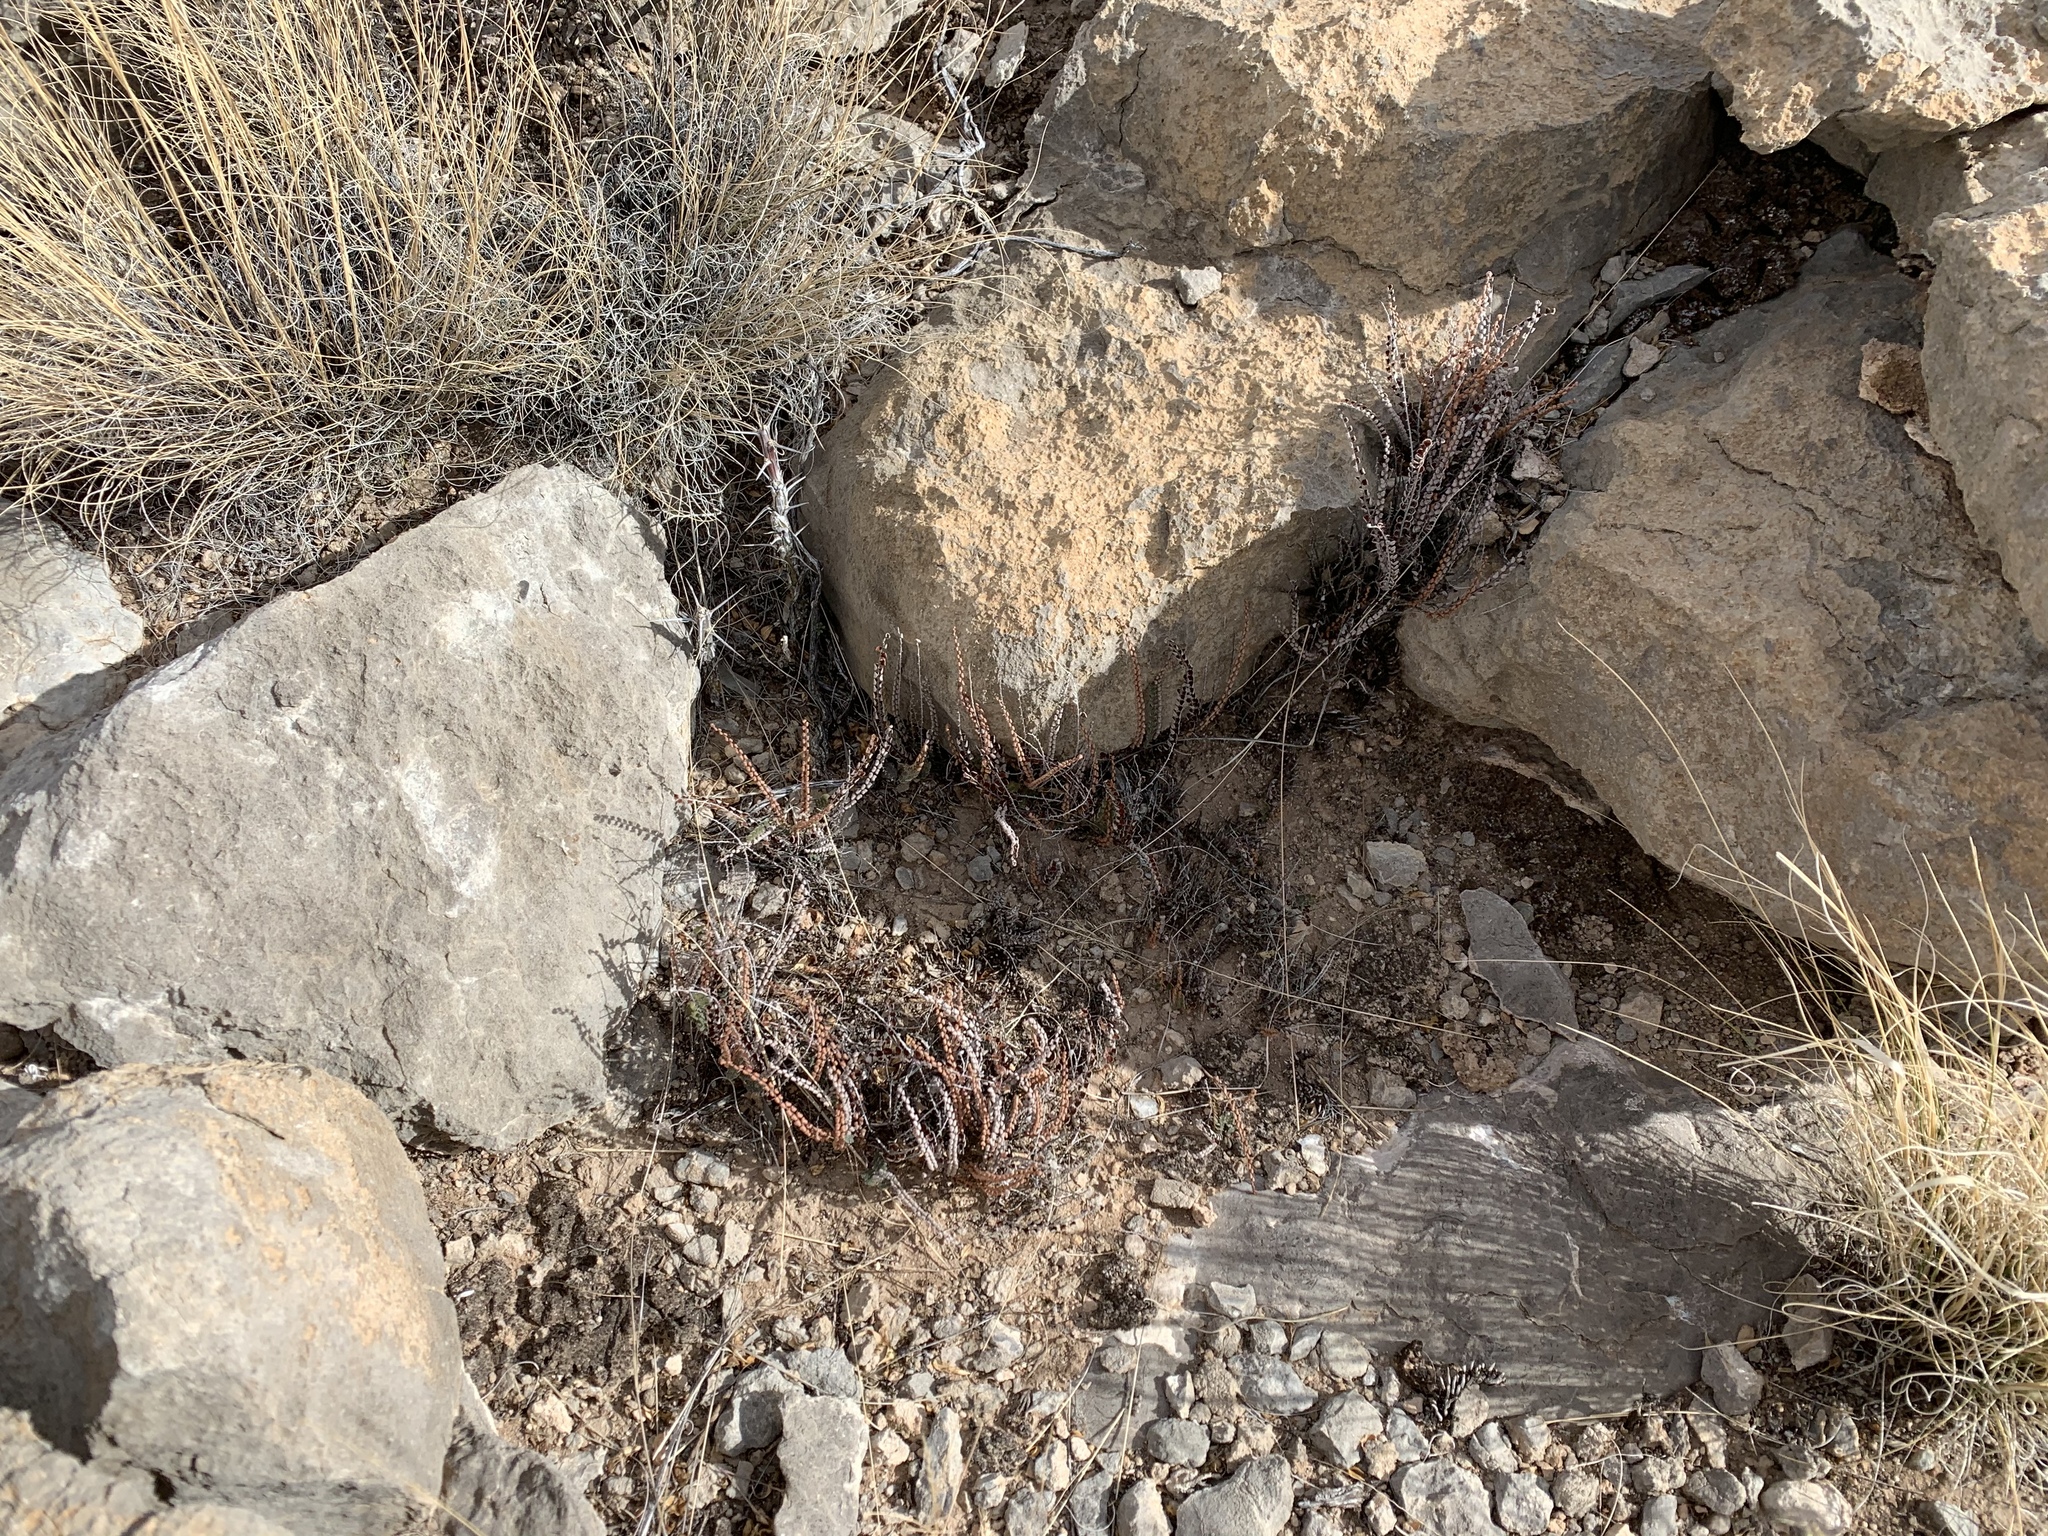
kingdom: Plantae
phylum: Tracheophyta
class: Polypodiopsida
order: Polypodiales
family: Pteridaceae
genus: Astrolepis
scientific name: Astrolepis cochisensis
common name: Scaly cloak fern
